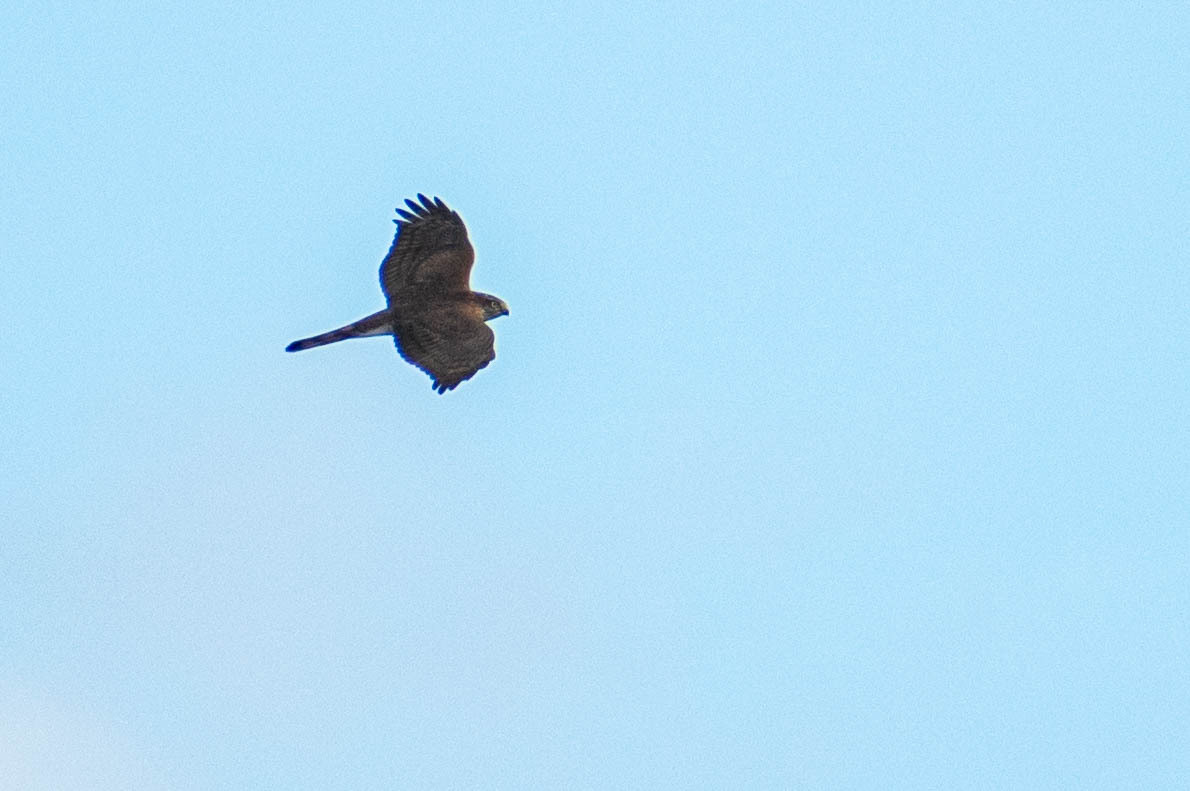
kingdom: Animalia
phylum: Chordata
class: Aves
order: Accipitriformes
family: Accipitridae
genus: Accipiter
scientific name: Accipiter nisus
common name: Eurasian sparrowhawk
